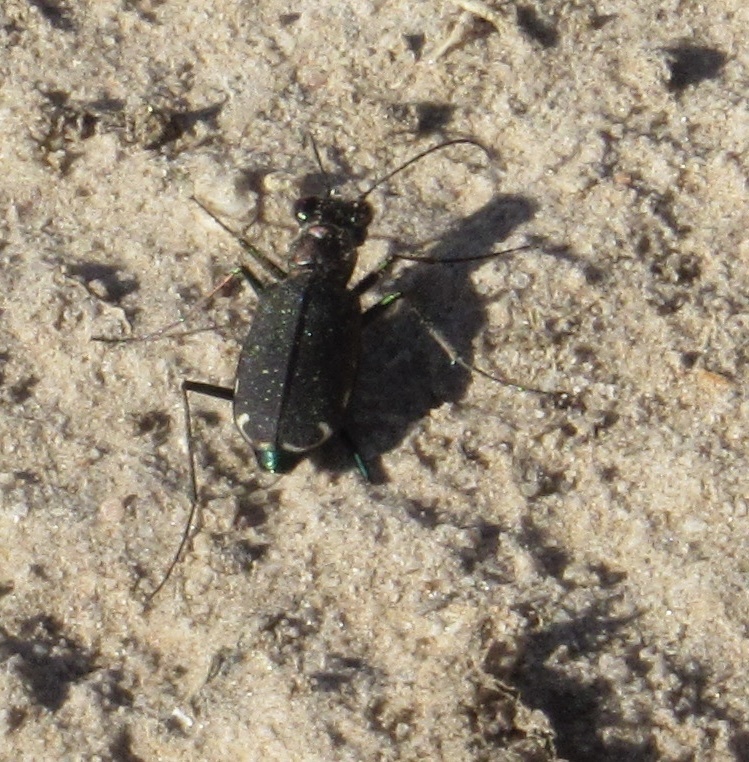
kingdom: Animalia
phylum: Arthropoda
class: Insecta
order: Coleoptera
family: Carabidae
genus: Cicindela
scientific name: Cicindela punctulata
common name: Punctured tiger beetle
